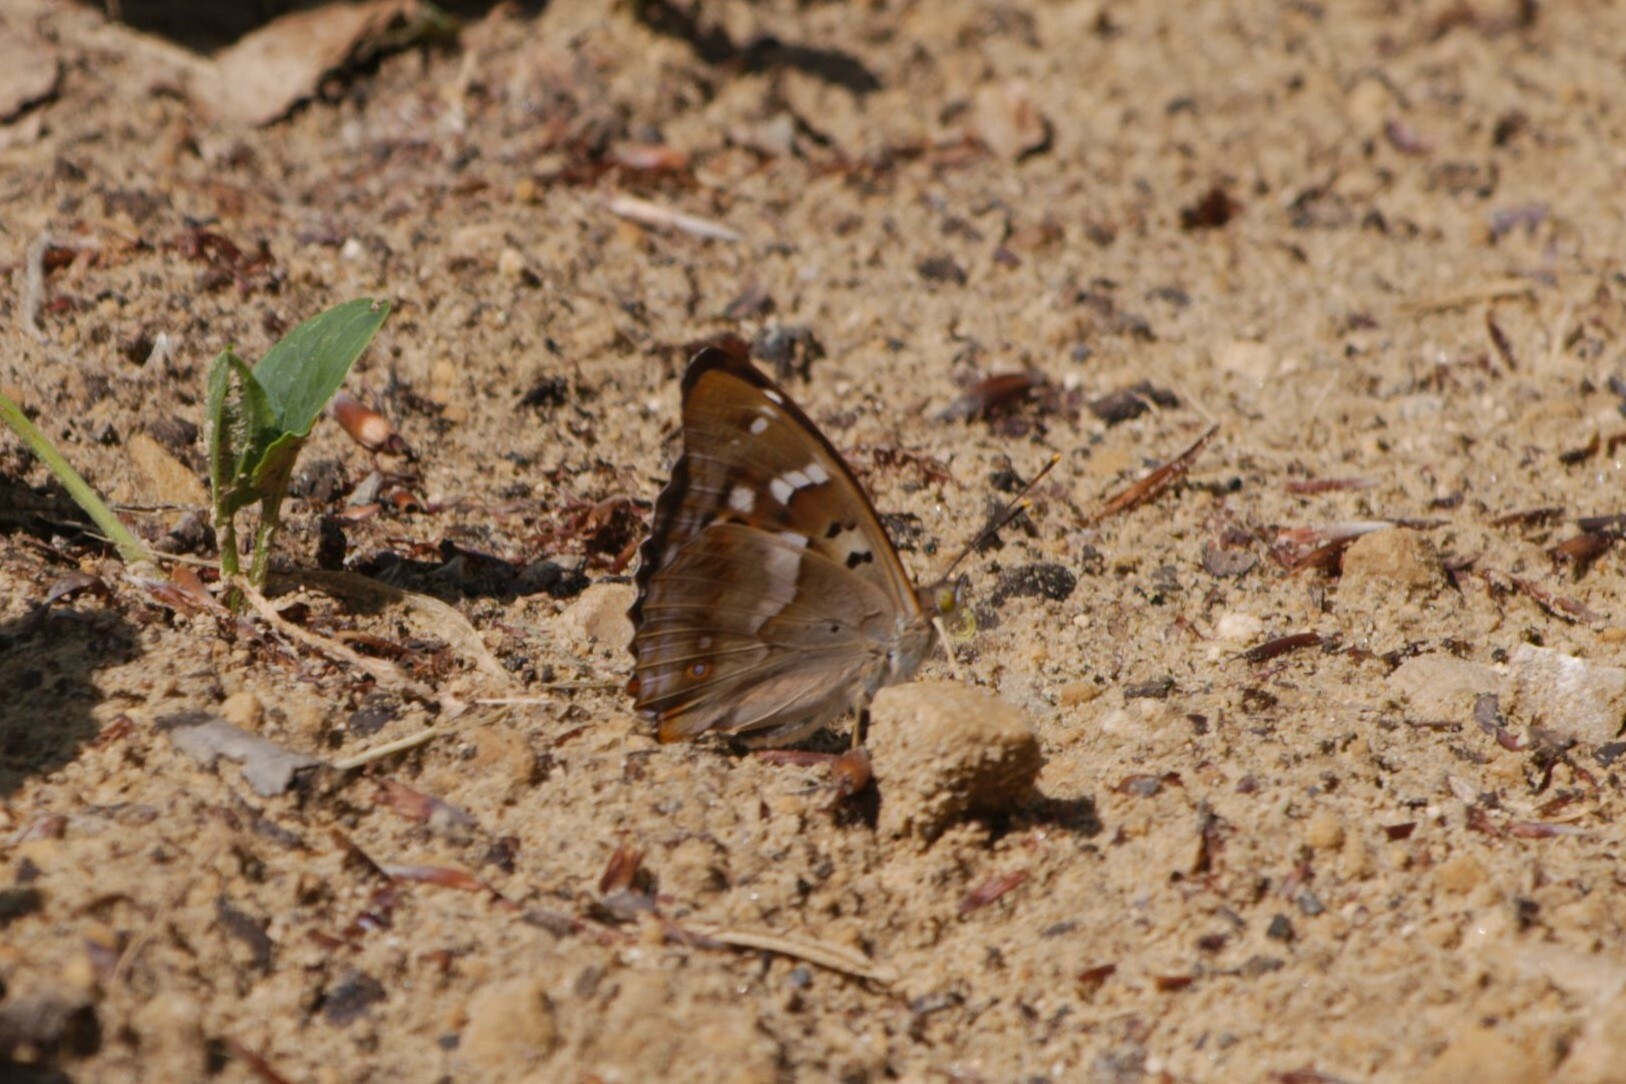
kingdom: Animalia
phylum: Arthropoda
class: Insecta
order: Lepidoptera
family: Nymphalidae
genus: Apatura
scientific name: Apatura ilia
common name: Lesser purple emperor
